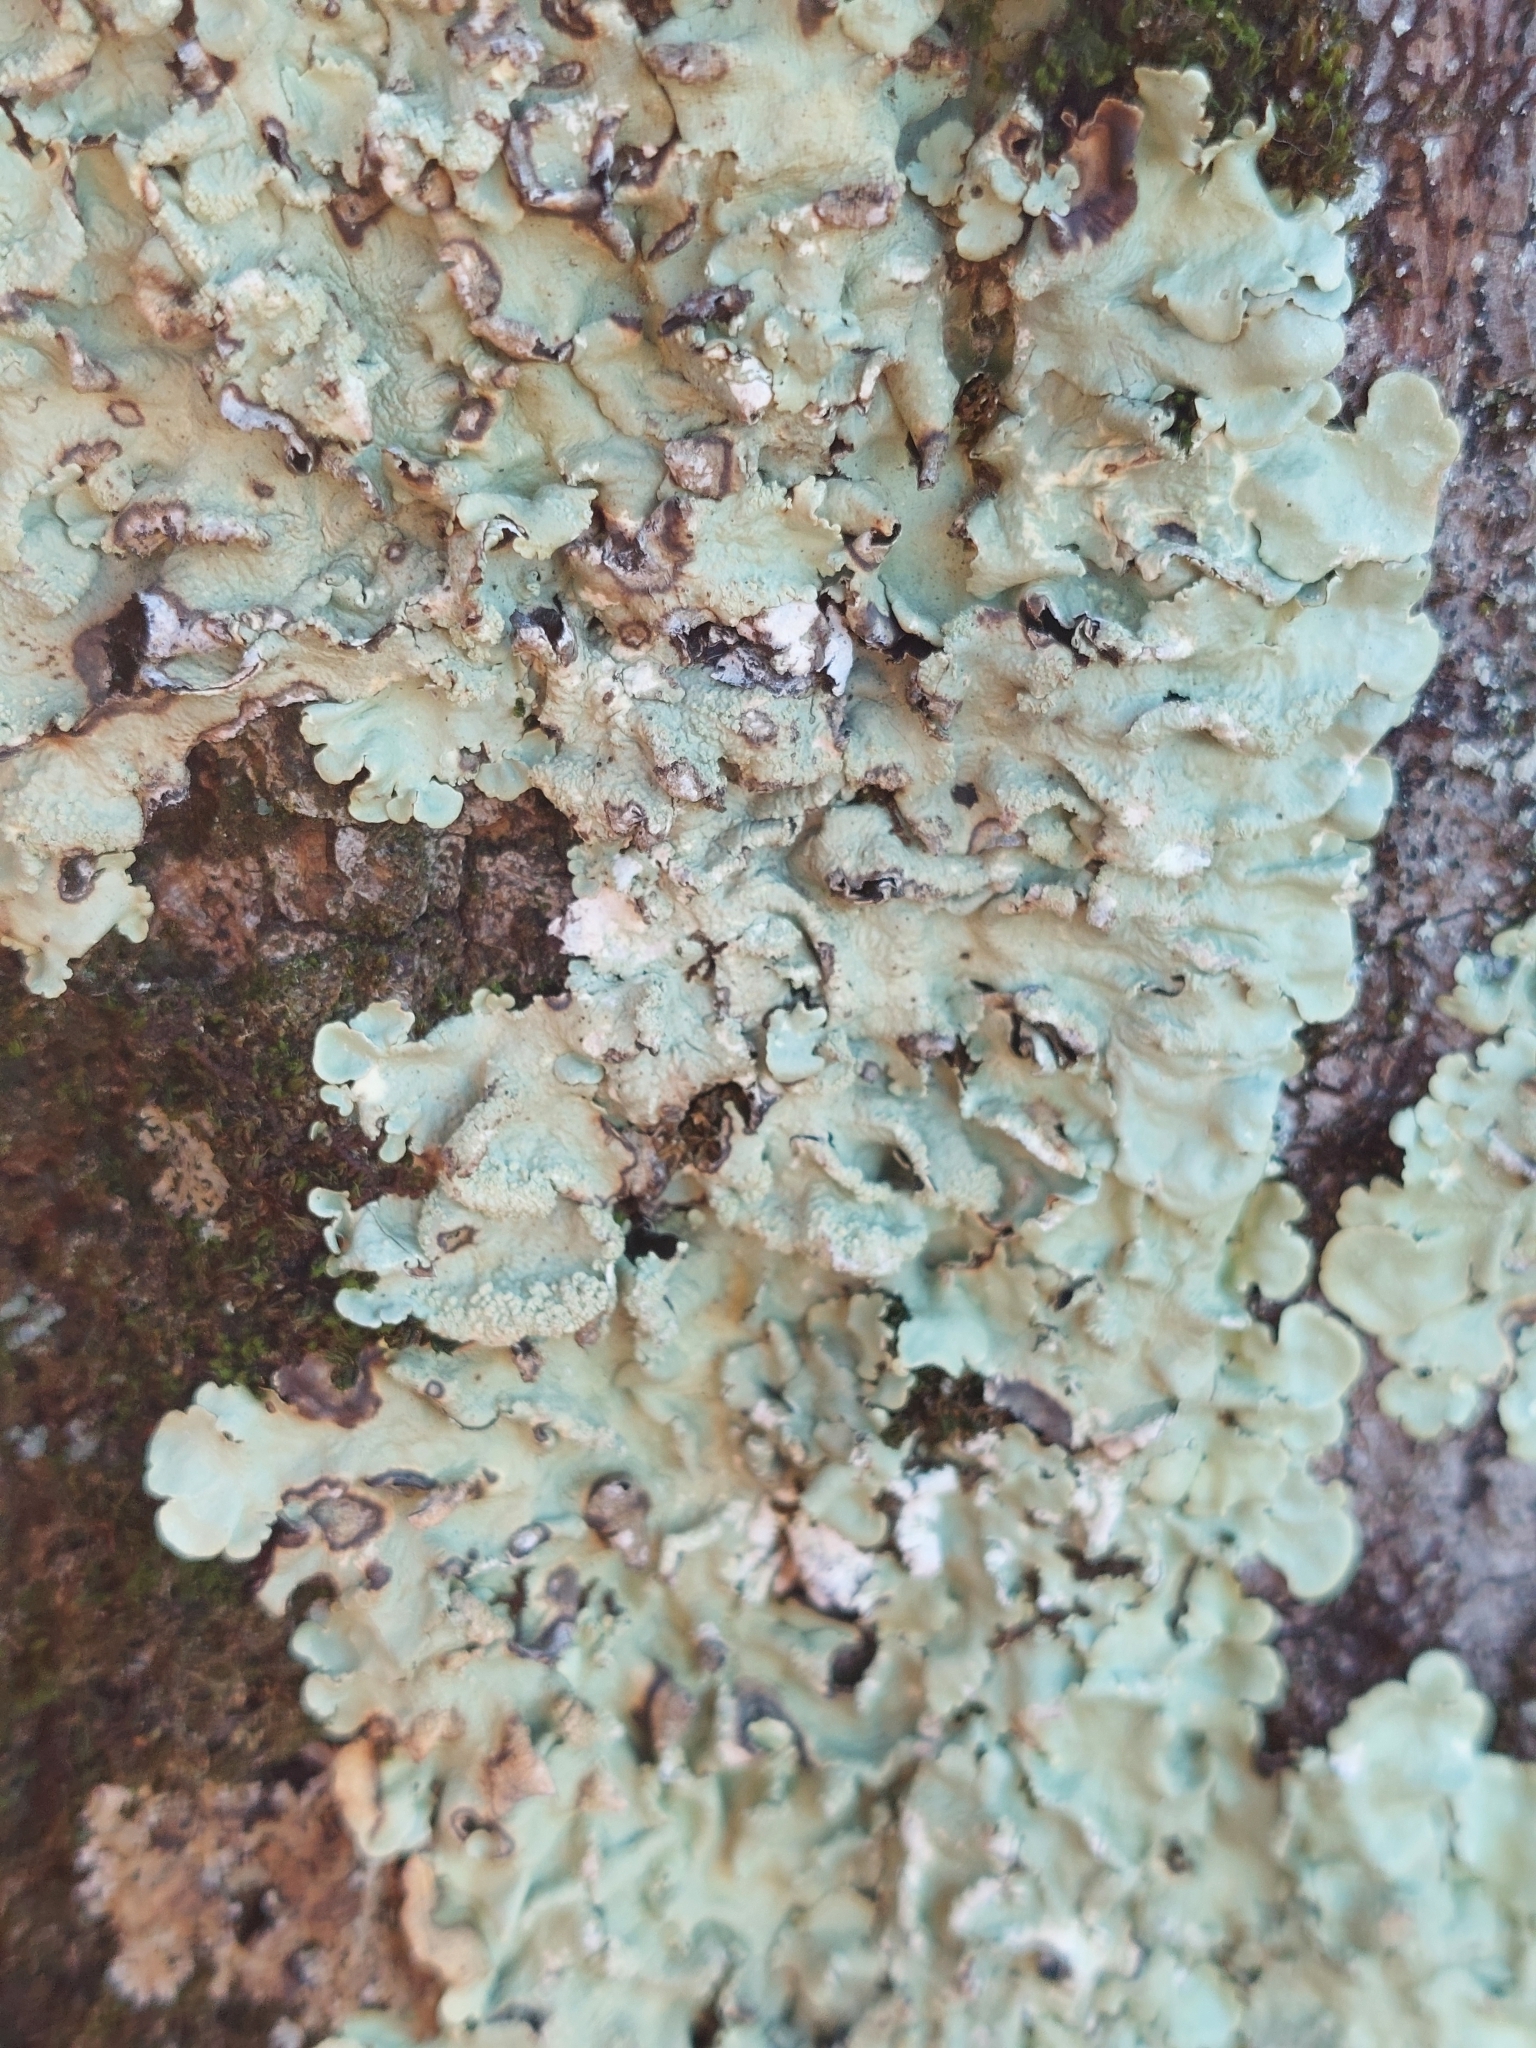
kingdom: Fungi
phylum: Ascomycota
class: Lecanoromycetes
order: Lecanorales
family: Parmeliaceae
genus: Flavoparmelia
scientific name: Flavoparmelia caperata
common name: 40-mile per hour lichen
